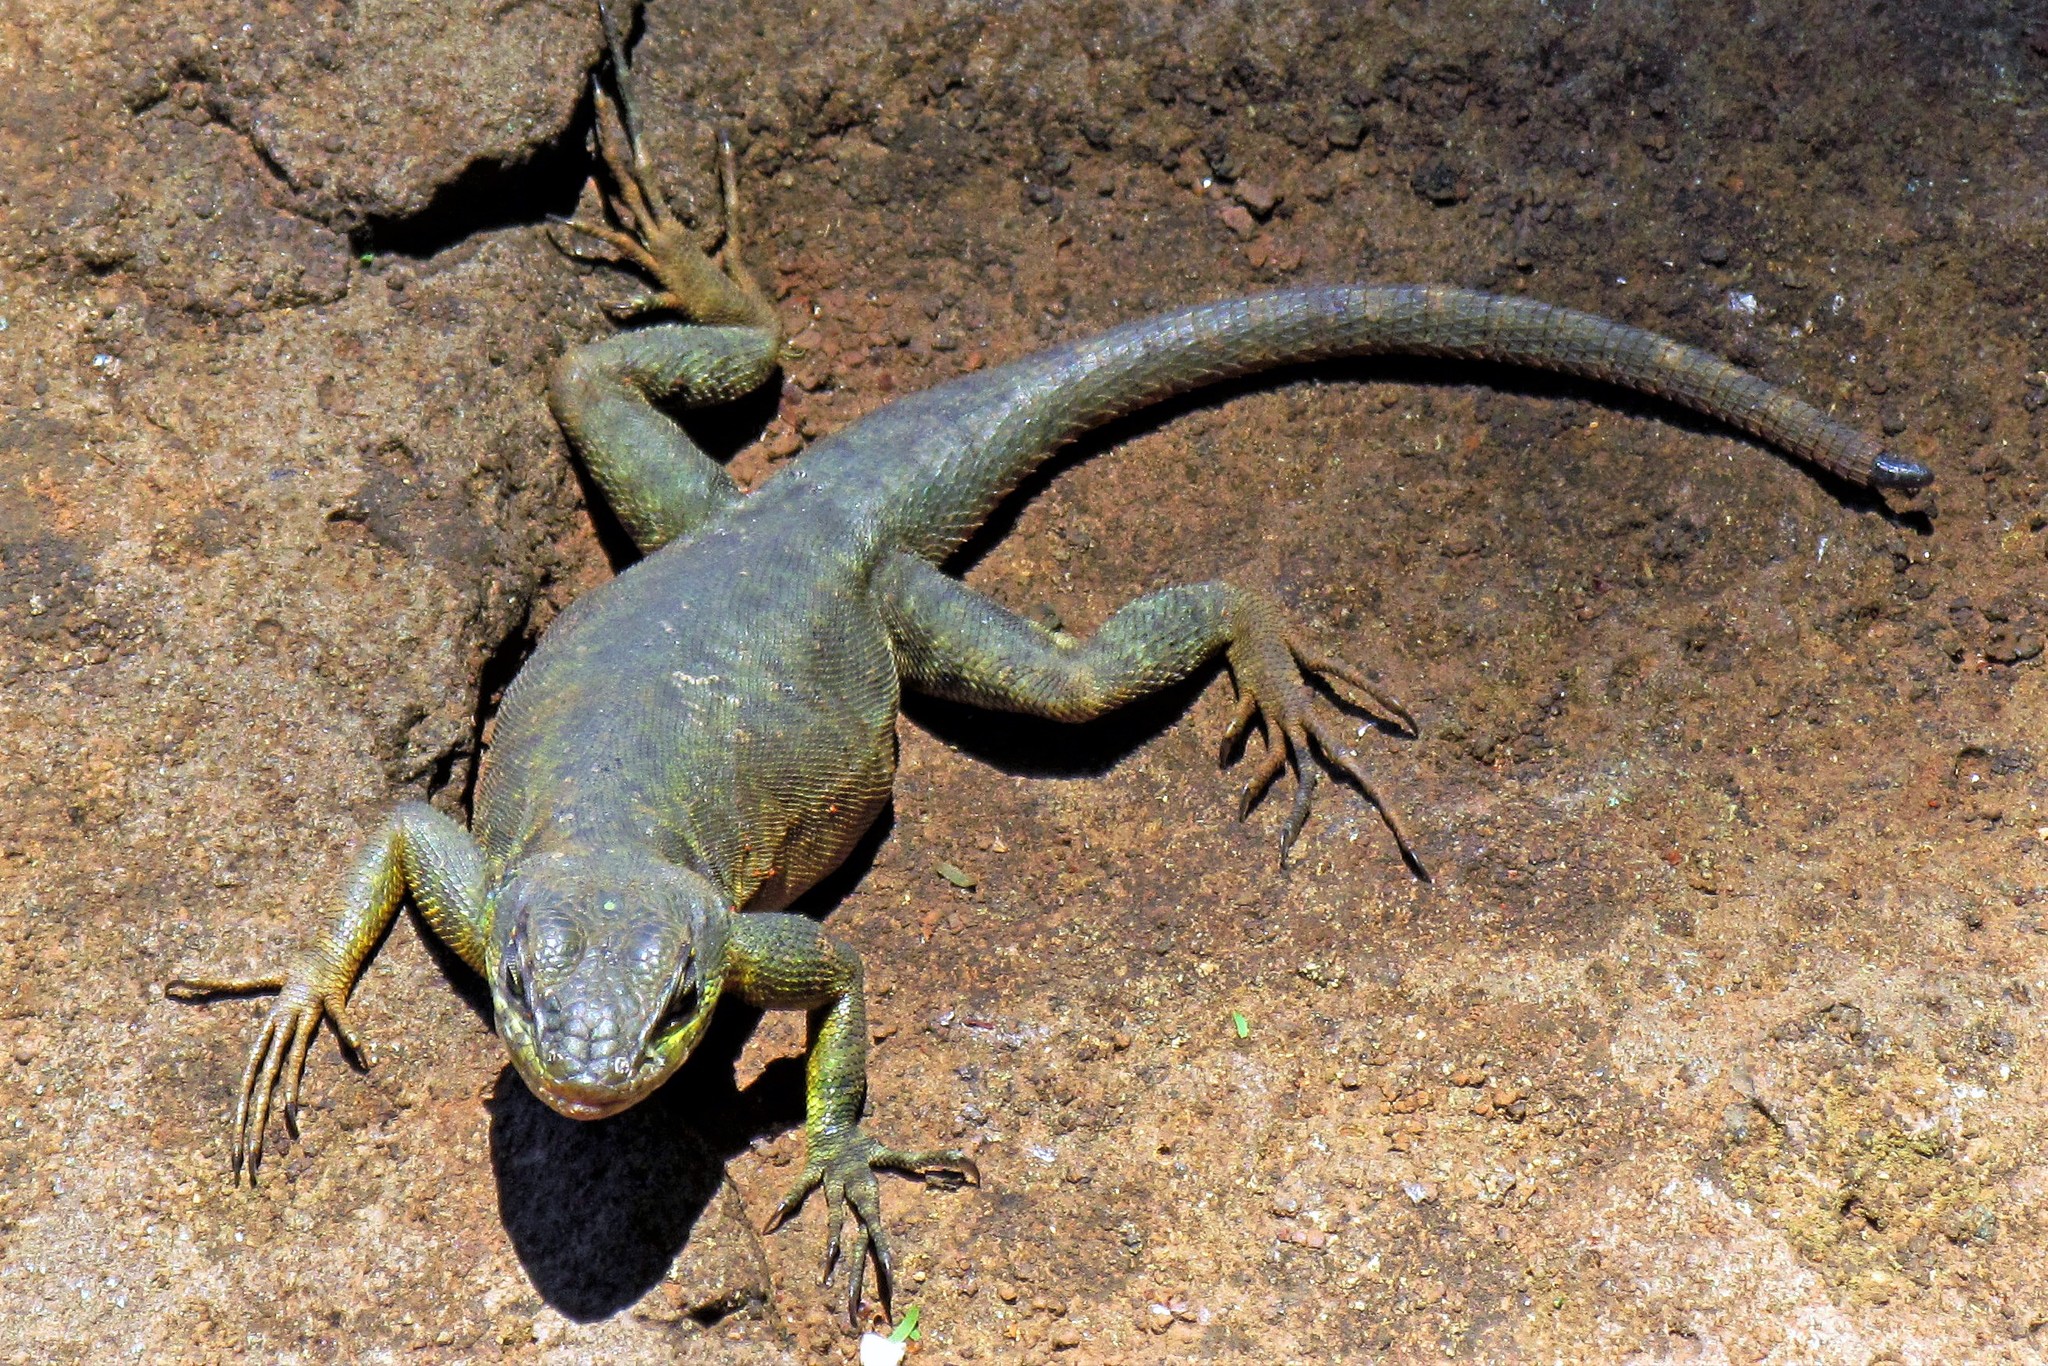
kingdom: Animalia
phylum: Chordata
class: Squamata
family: Tropiduridae
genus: Tropidurus
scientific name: Tropidurus catalanensis
